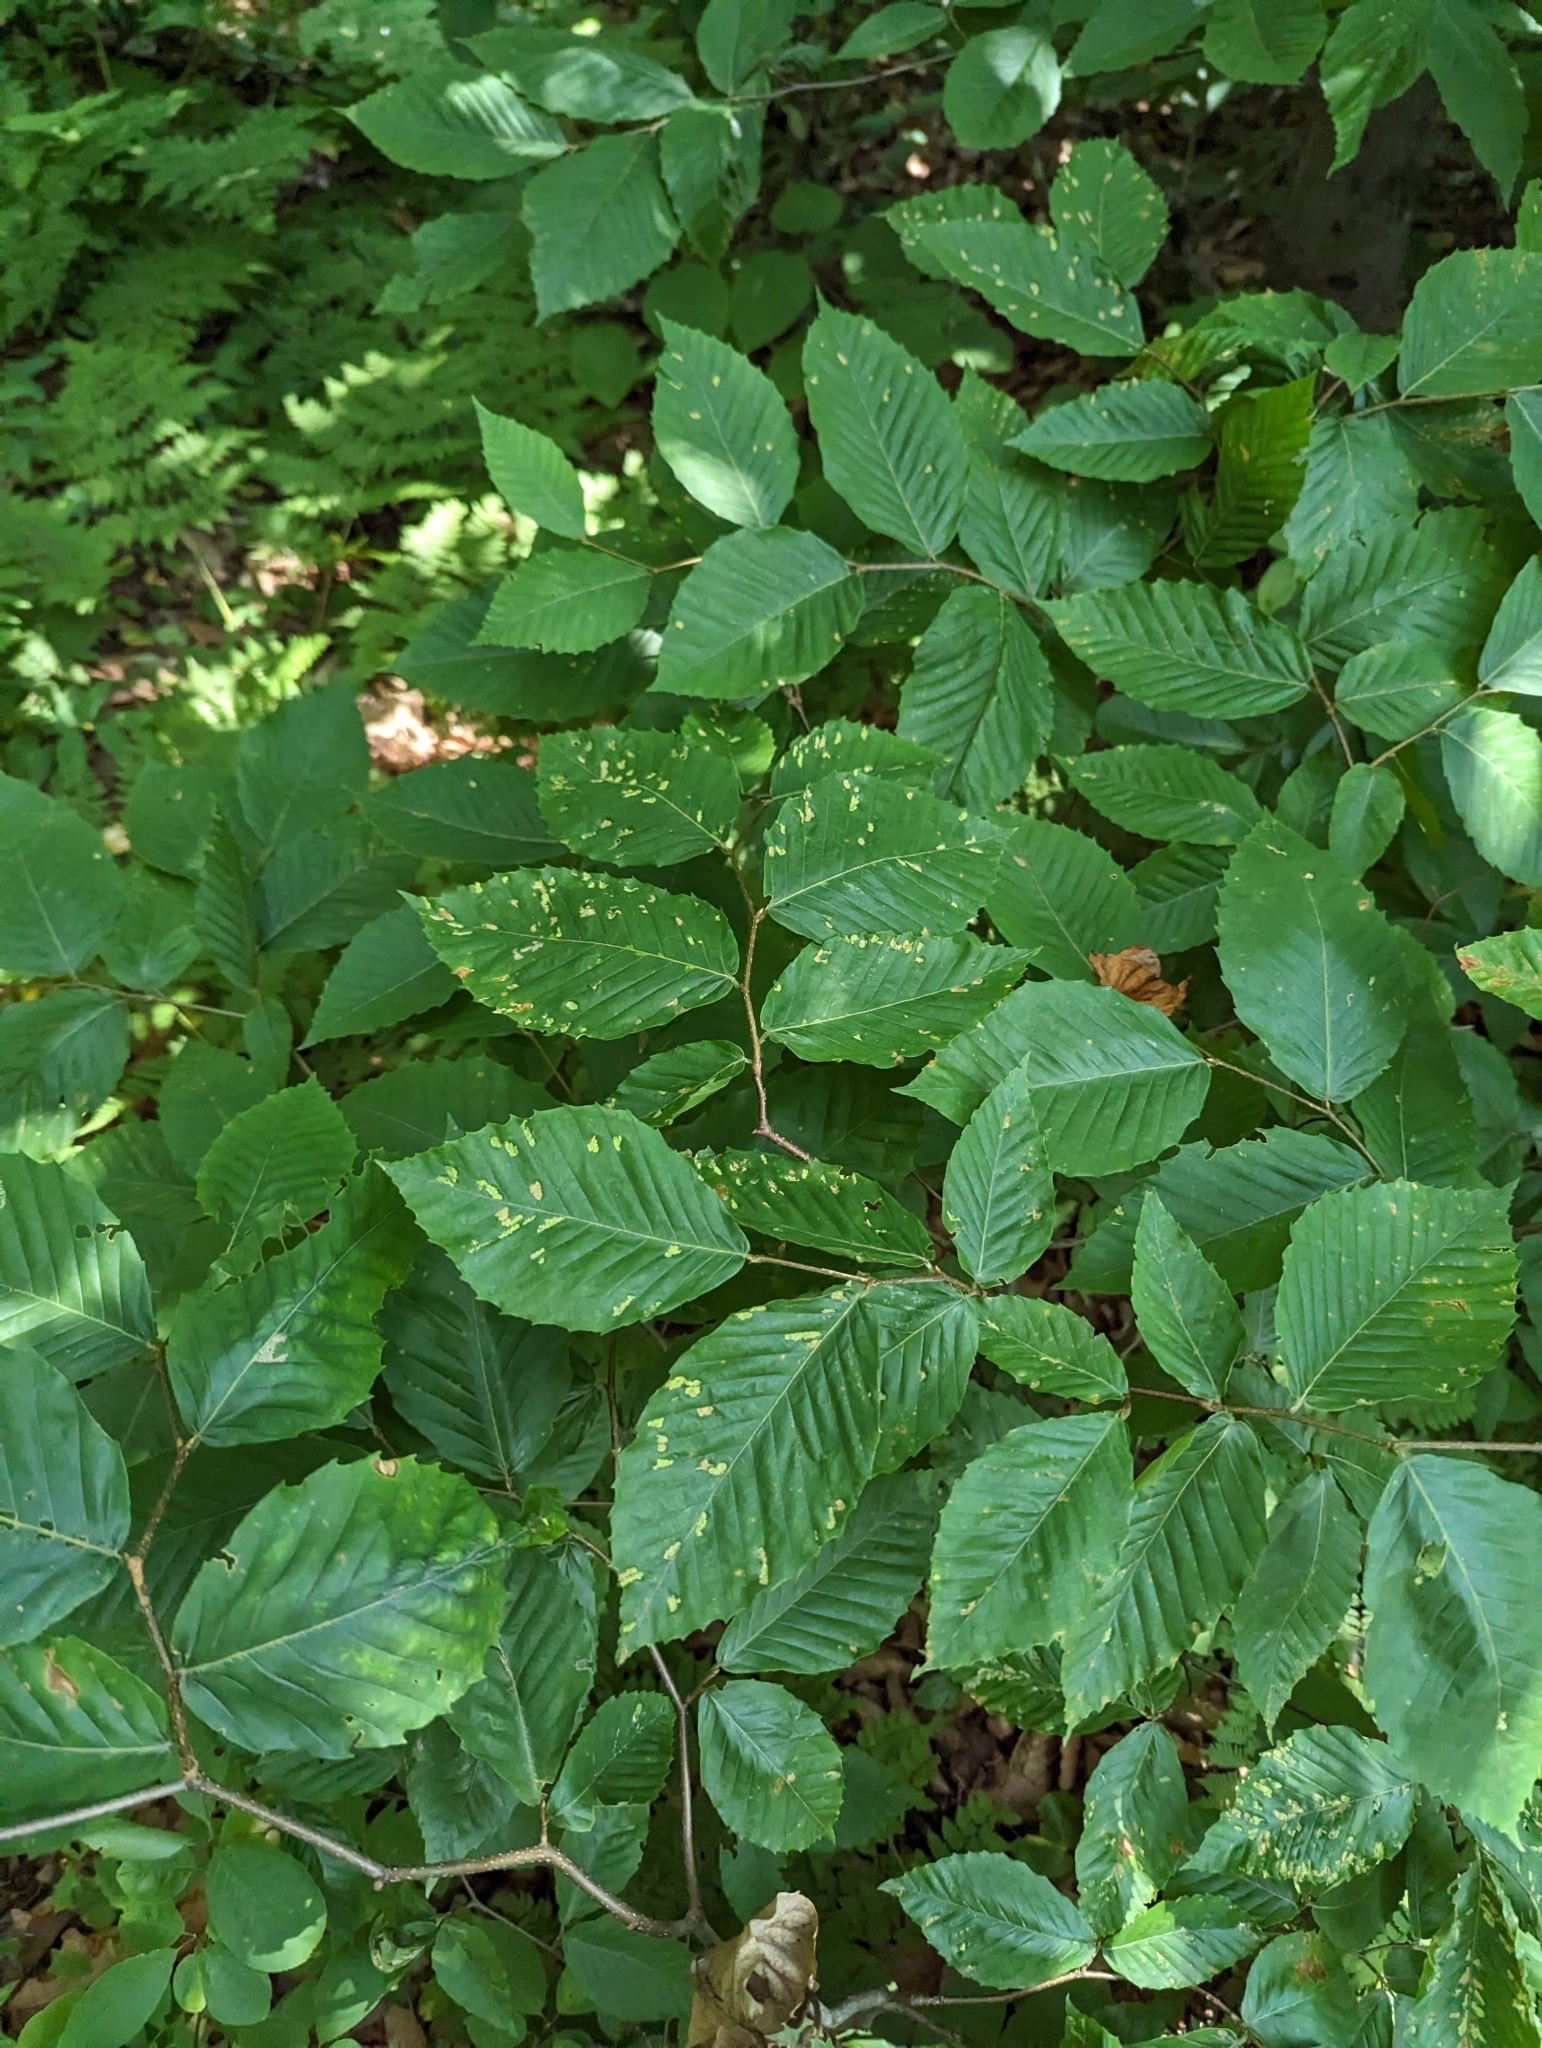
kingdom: Animalia
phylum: Arthropoda
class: Arachnida
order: Trombidiformes
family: Eriophyidae
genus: Acalitus
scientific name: Acalitus
